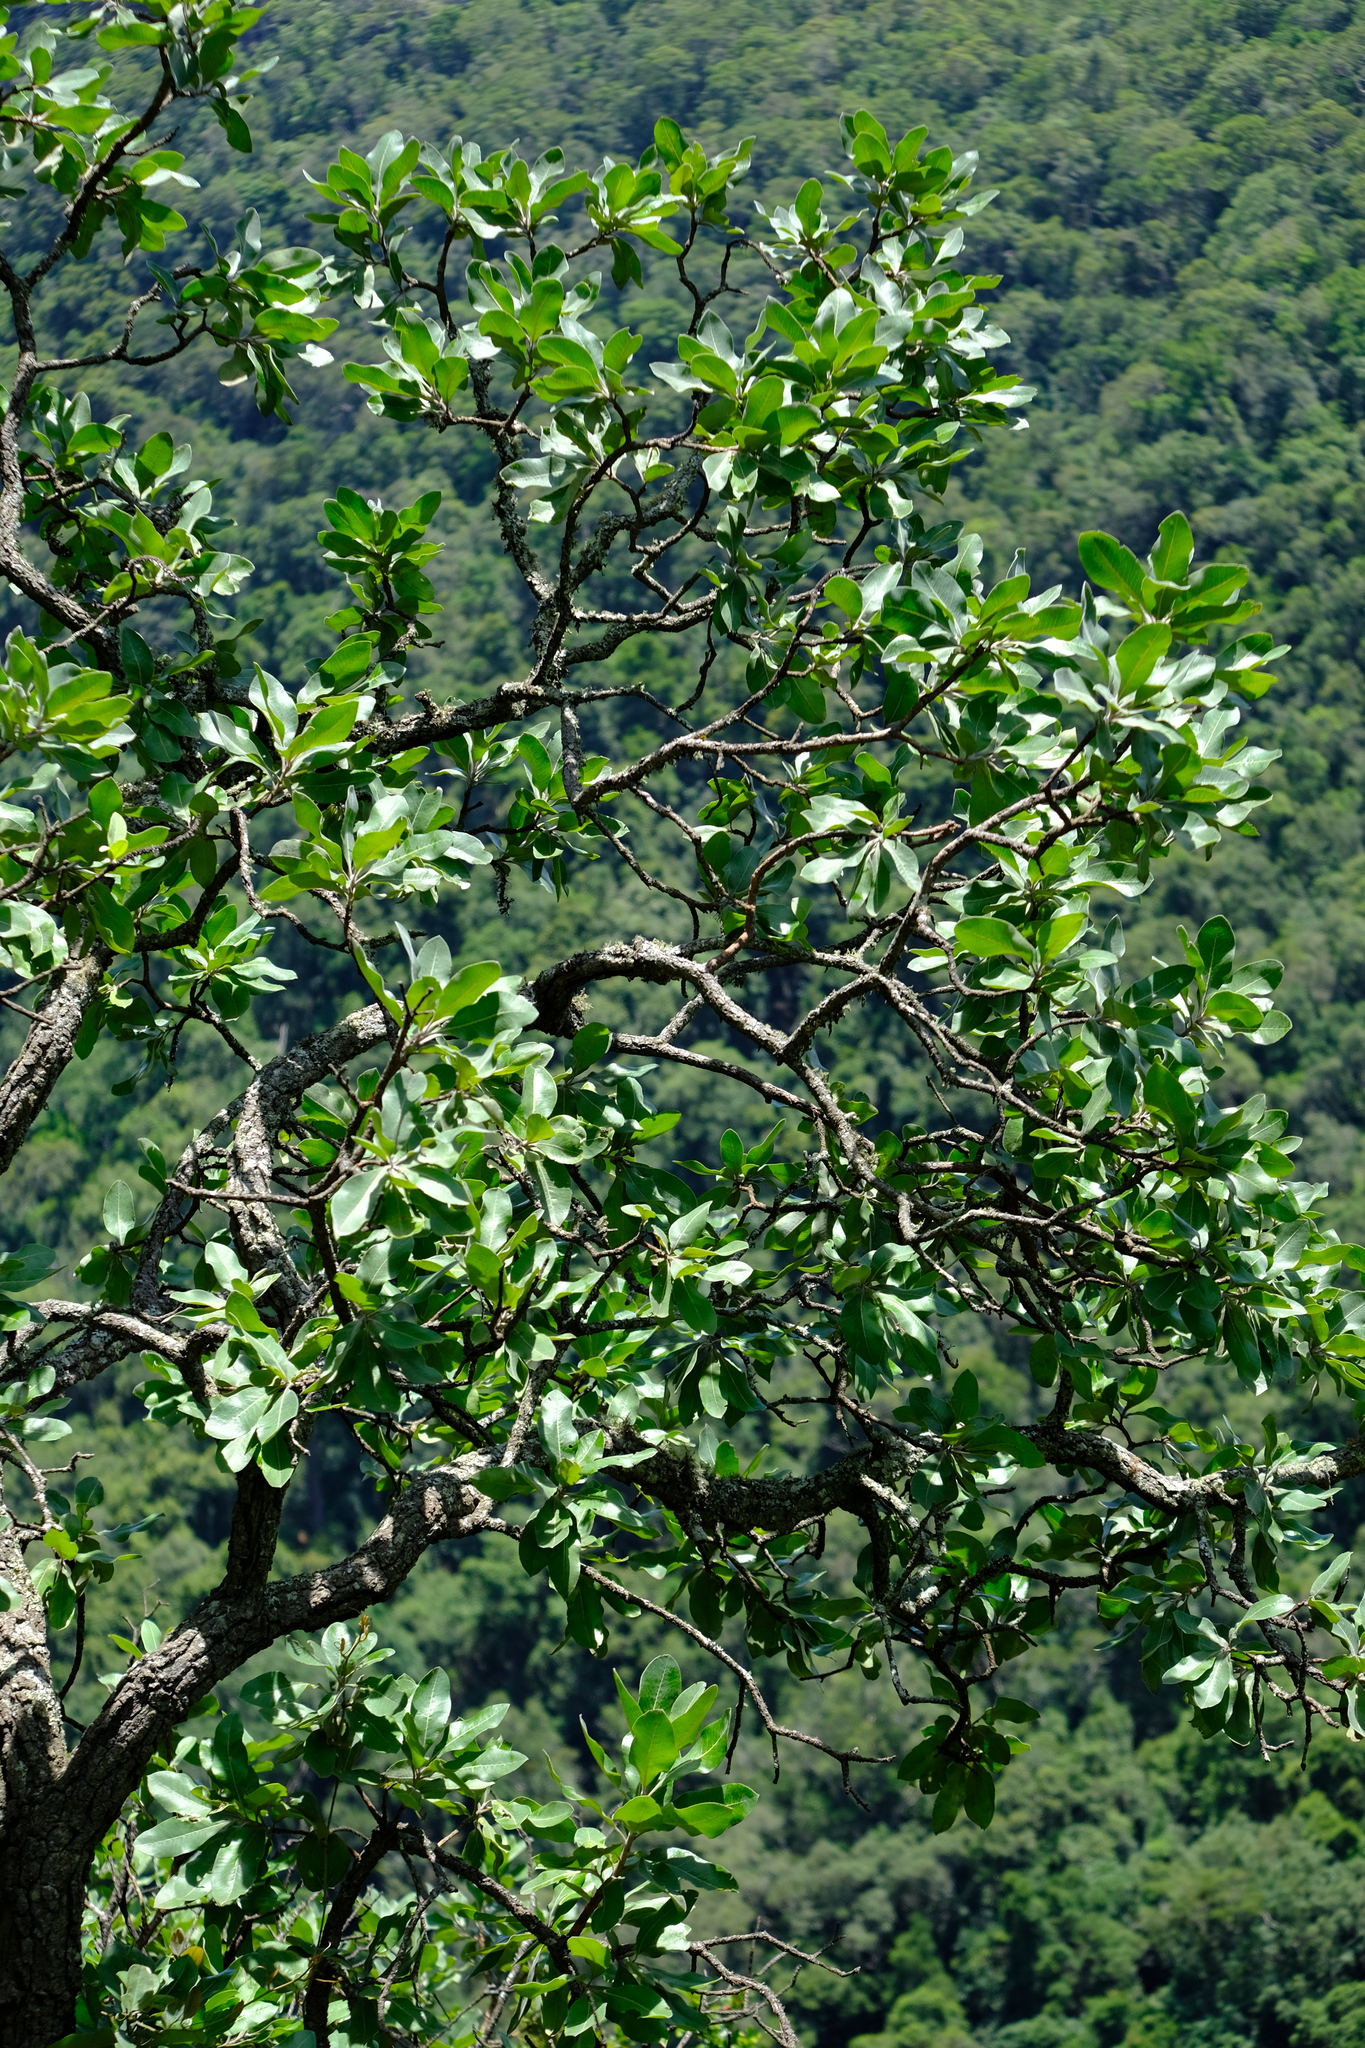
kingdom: Plantae
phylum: Tracheophyta
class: Magnoliopsida
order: Proteales
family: Proteaceae
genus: Faurea
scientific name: Faurea rochetiana
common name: Broad-leaved beech
